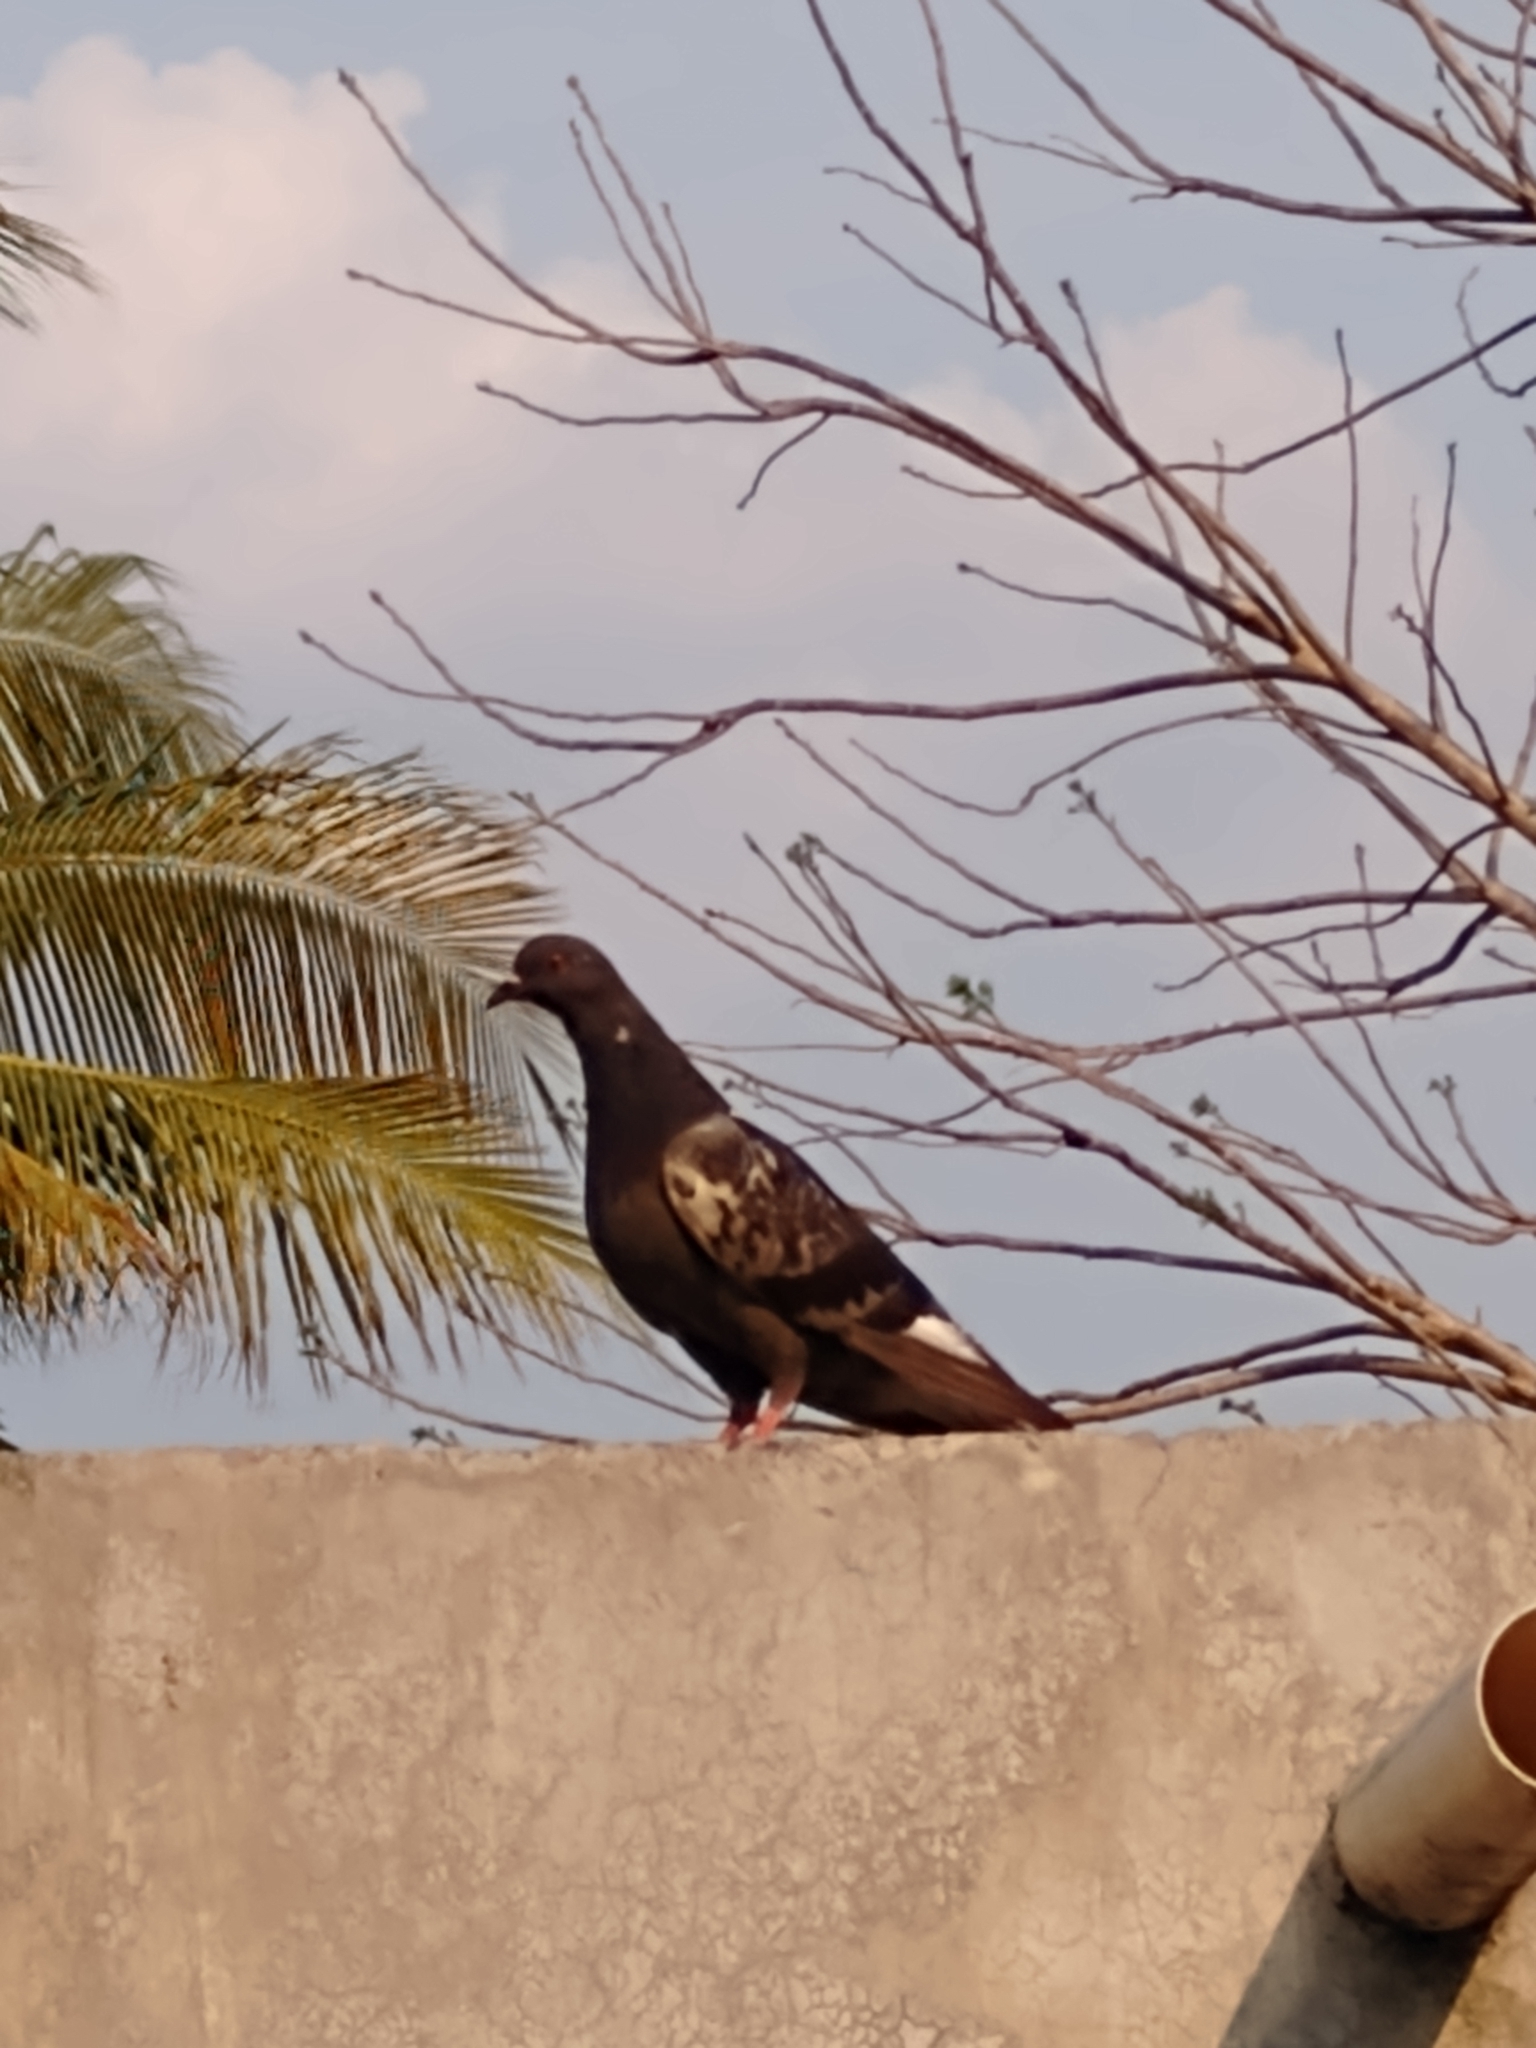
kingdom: Animalia
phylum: Chordata
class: Aves
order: Columbiformes
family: Columbidae
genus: Columba
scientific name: Columba livia
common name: Rock pigeon
